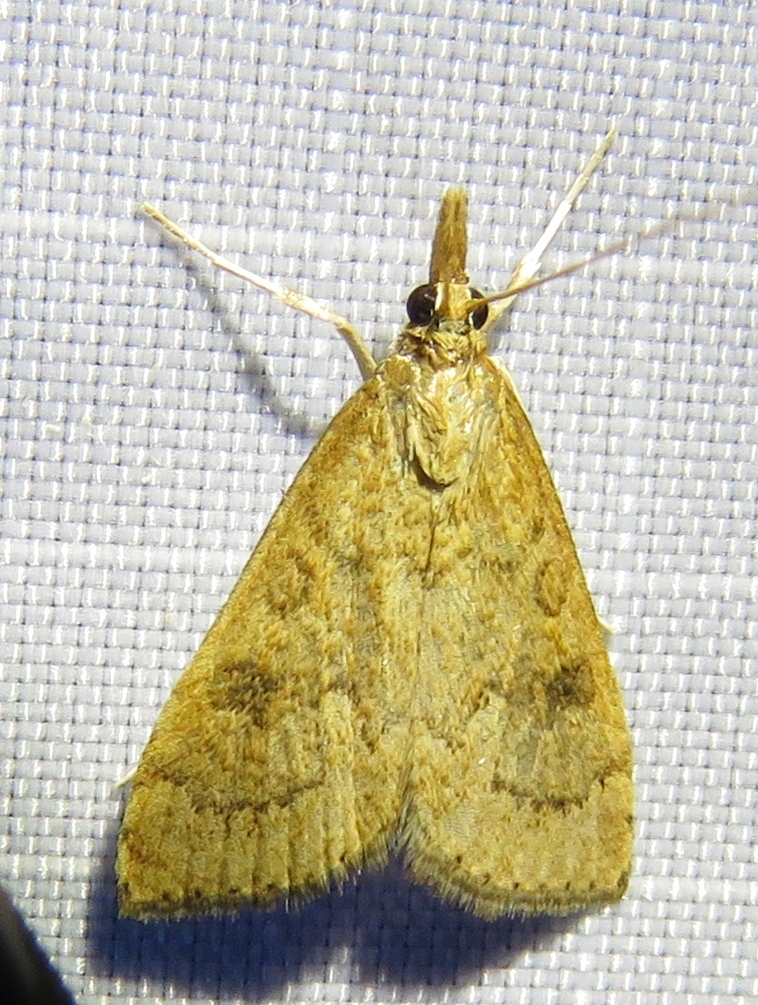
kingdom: Animalia
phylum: Arthropoda
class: Insecta
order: Lepidoptera
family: Crambidae
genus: Udea
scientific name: Udea rubigalis
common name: Celery leaftier moth
